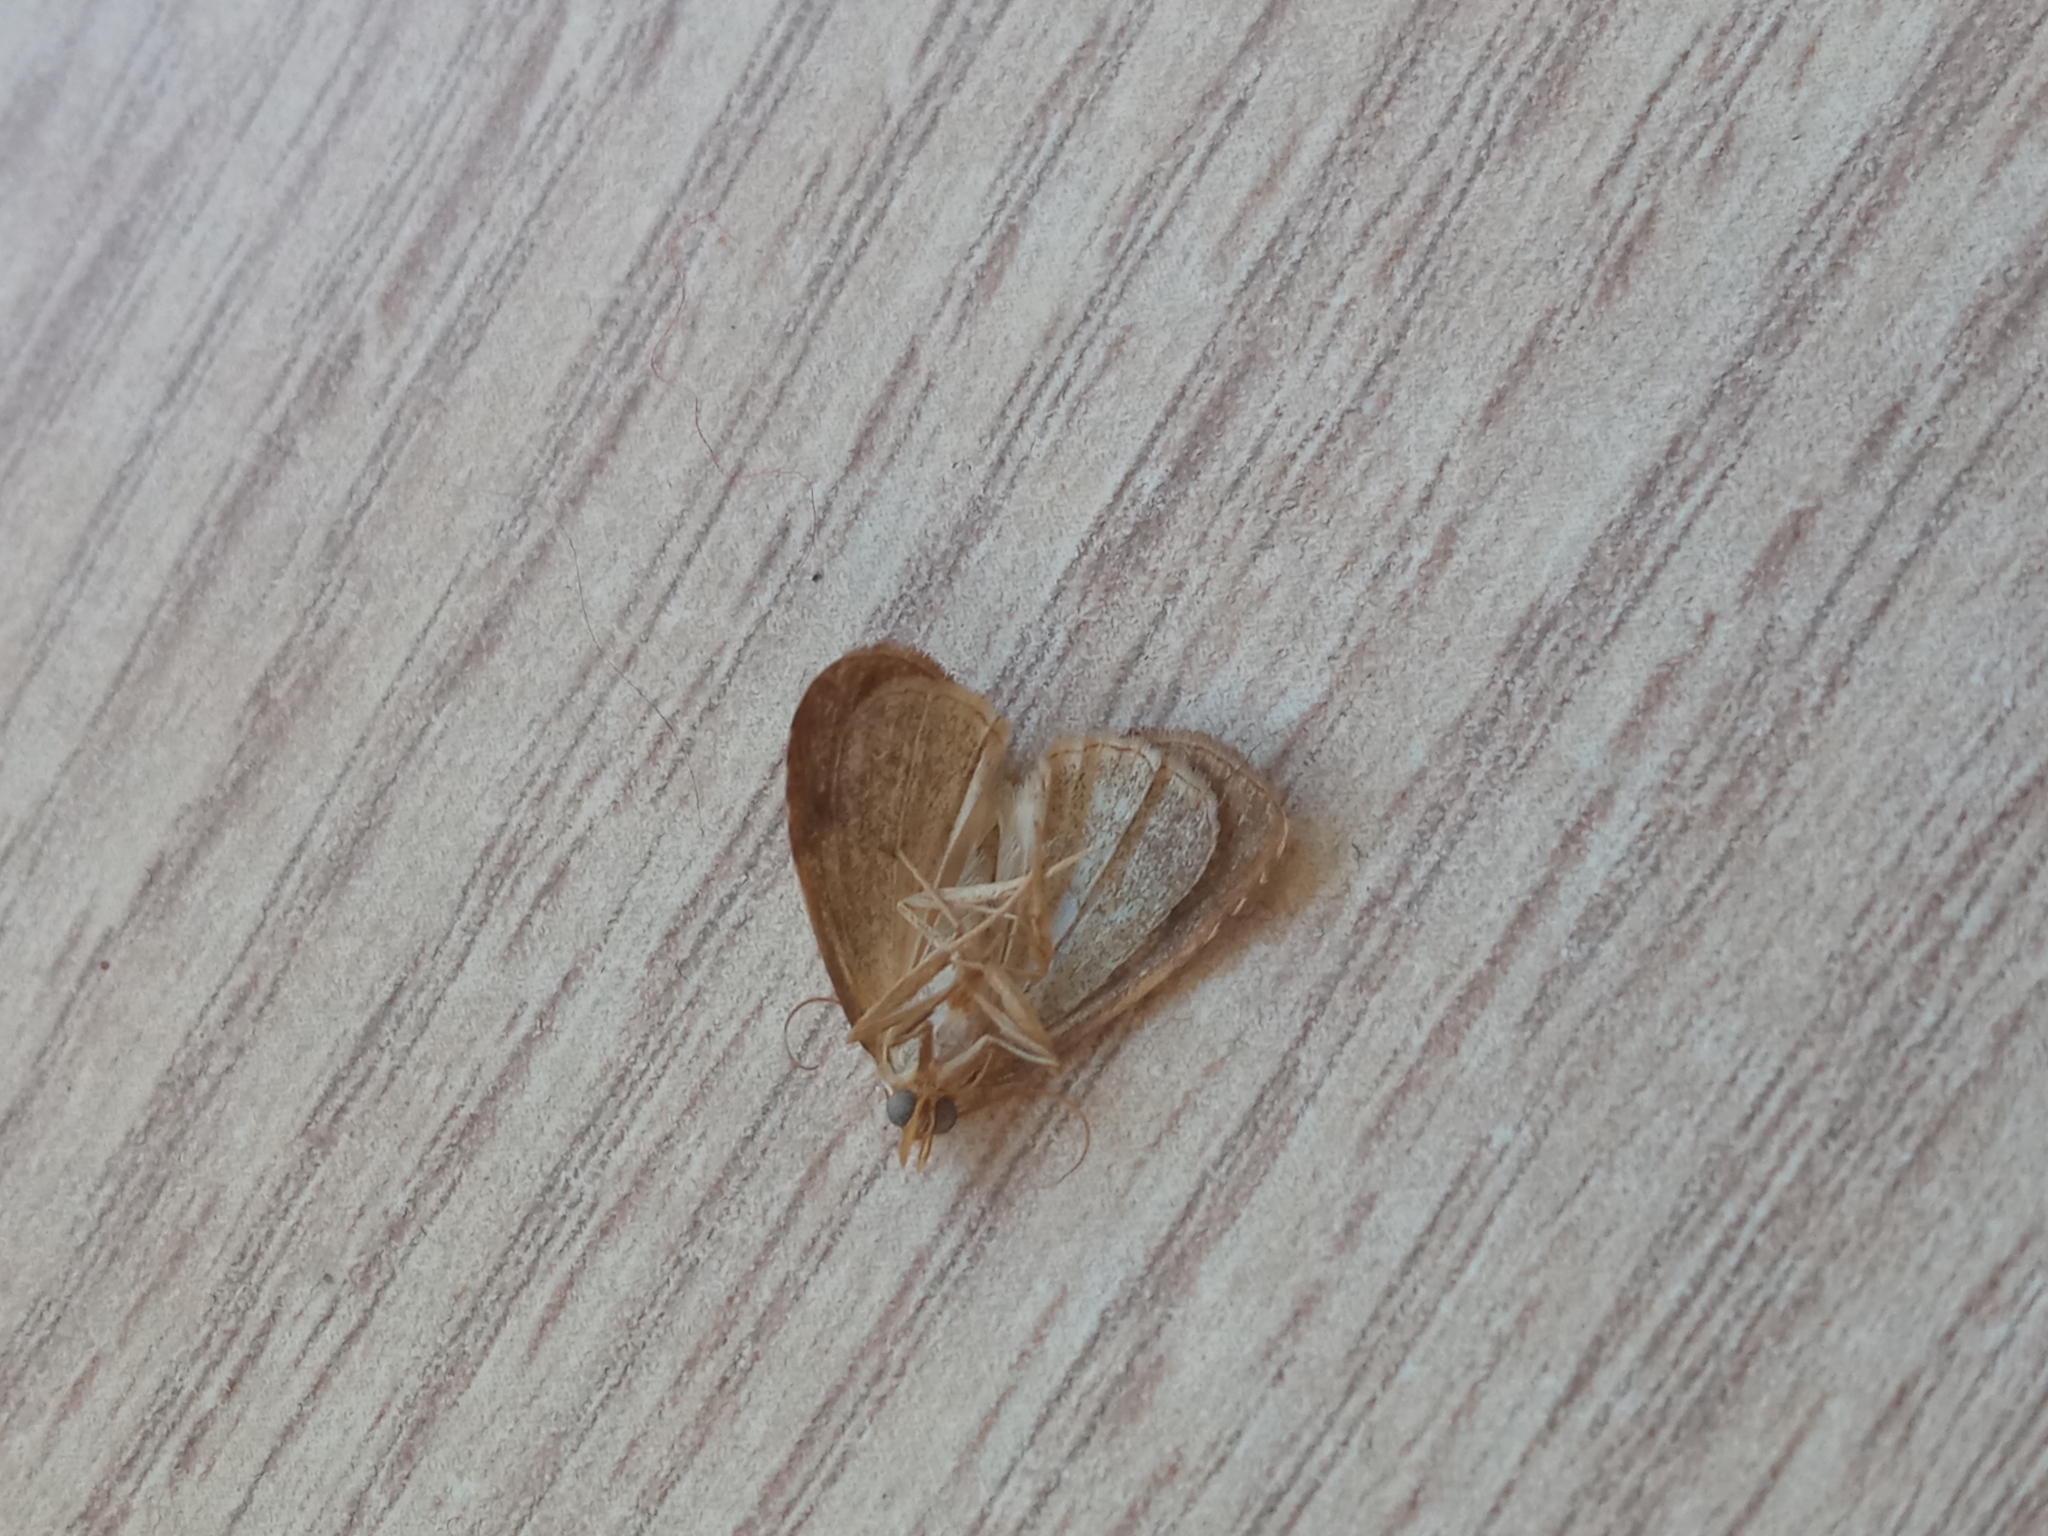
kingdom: Animalia
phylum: Arthropoda
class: Insecta
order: Lepidoptera
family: Erebidae
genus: Rivula
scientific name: Rivula sericealis
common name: Straw dot
